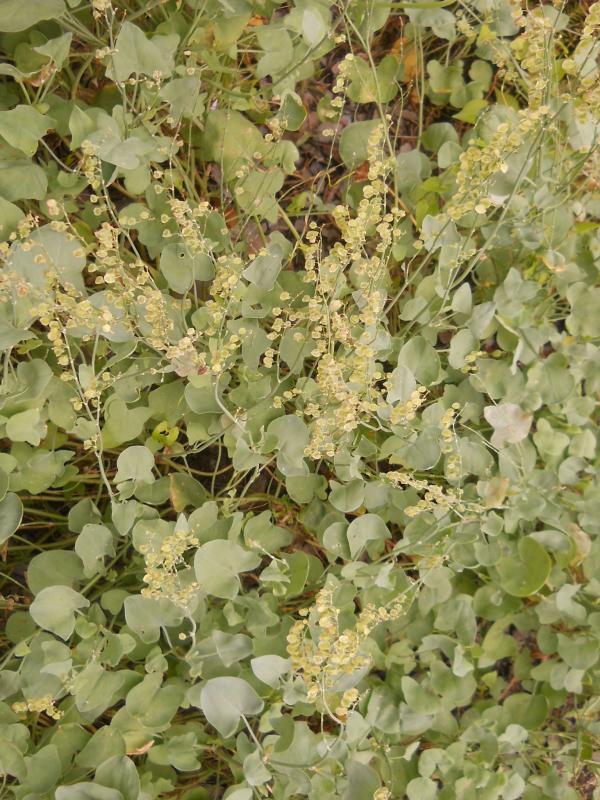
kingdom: Plantae
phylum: Tracheophyta
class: Magnoliopsida
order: Caryophyllales
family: Polygonaceae
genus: Rumex
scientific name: Rumex scutatus
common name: French sorrel
